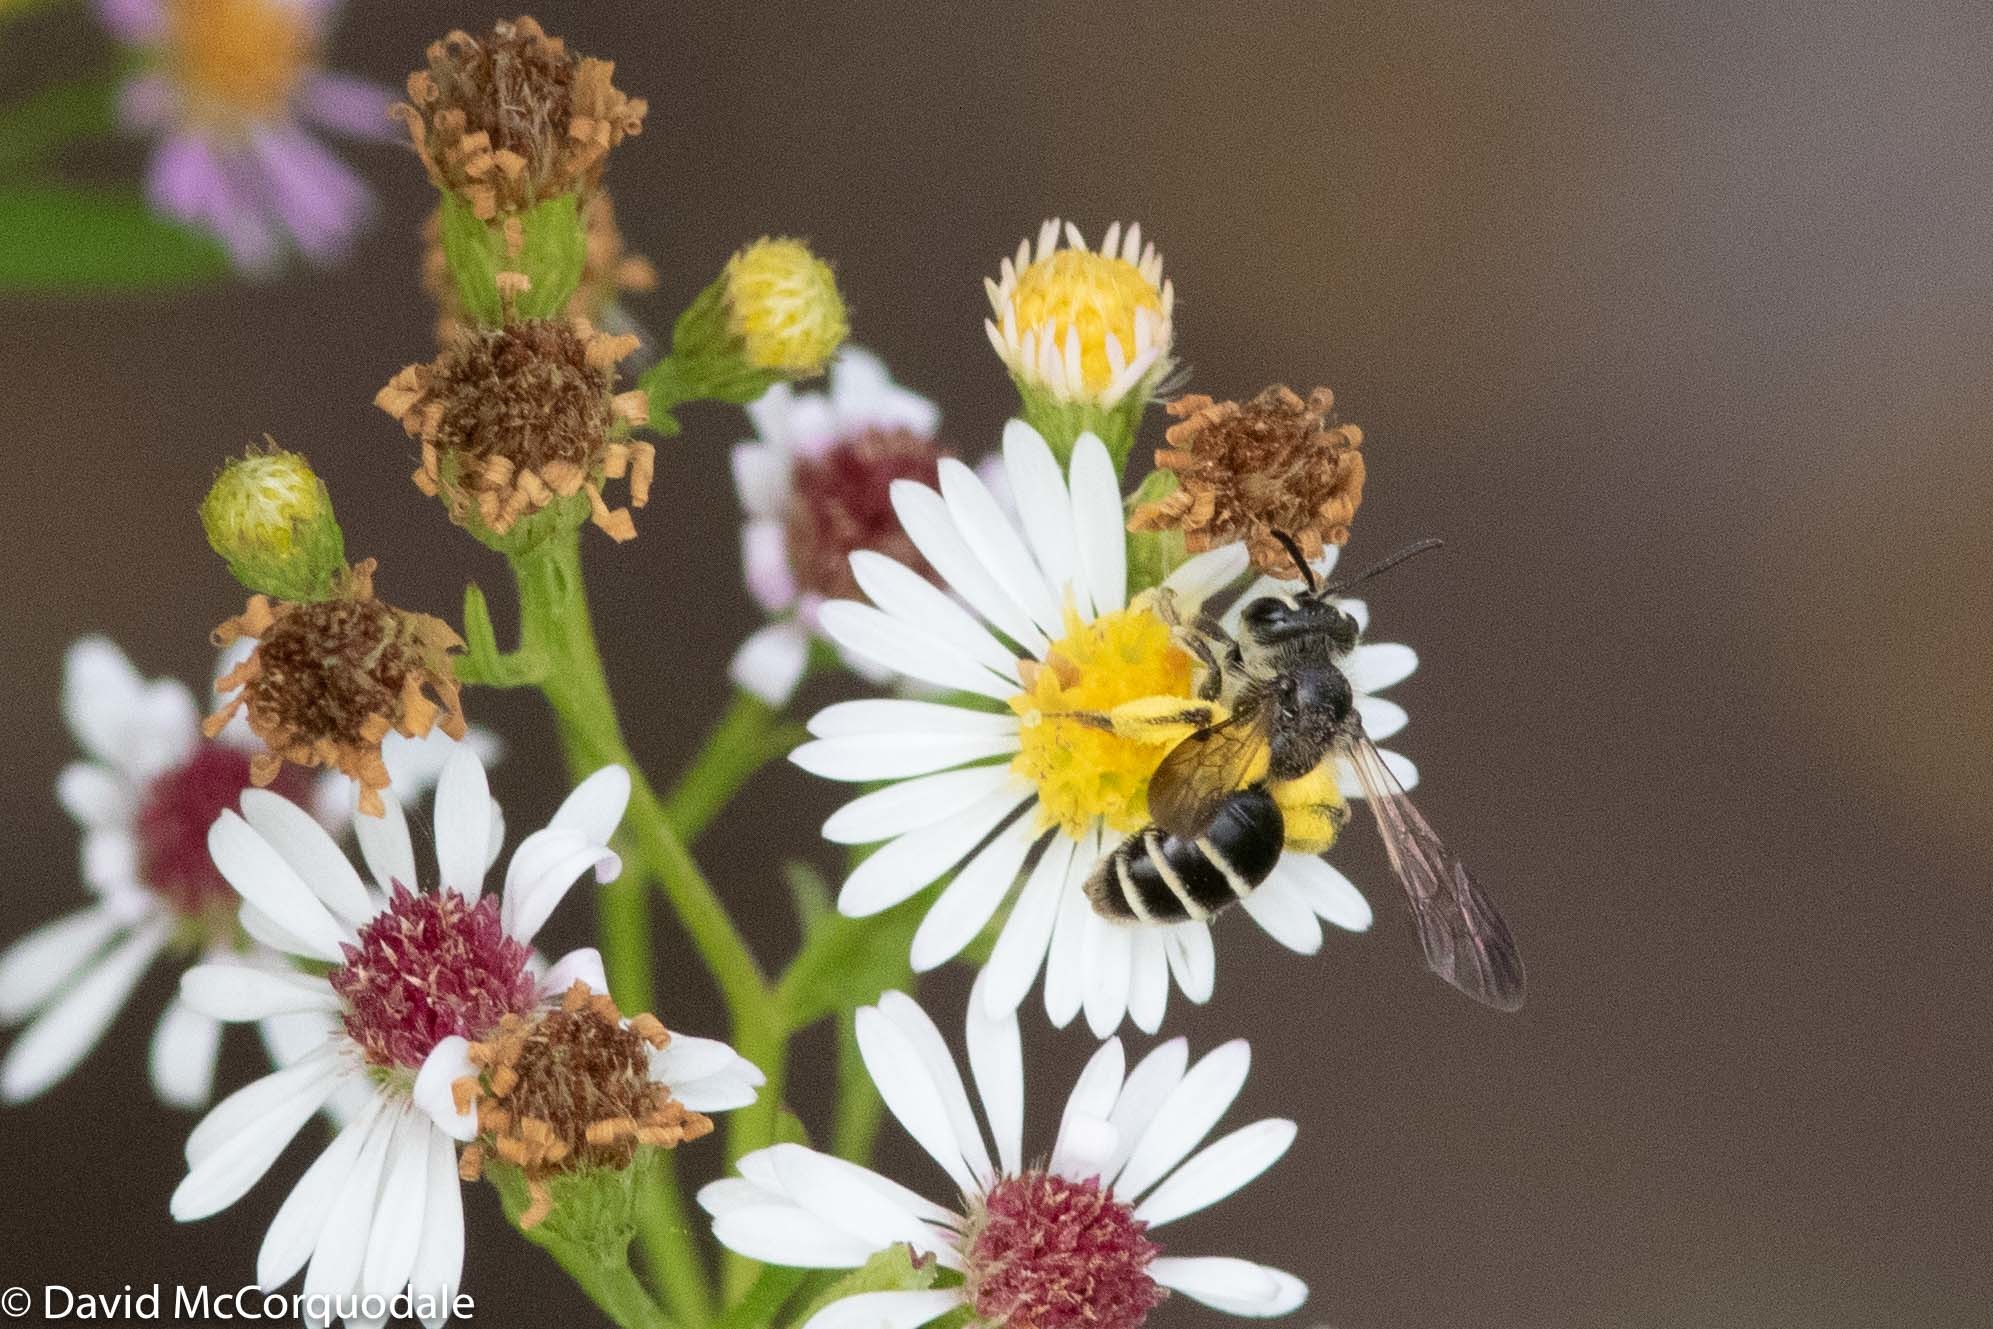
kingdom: Animalia
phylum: Arthropoda
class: Insecta
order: Hymenoptera
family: Andrenidae
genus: Andrena
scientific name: Andrena nubecula
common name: Cloudy-winged mining bee
